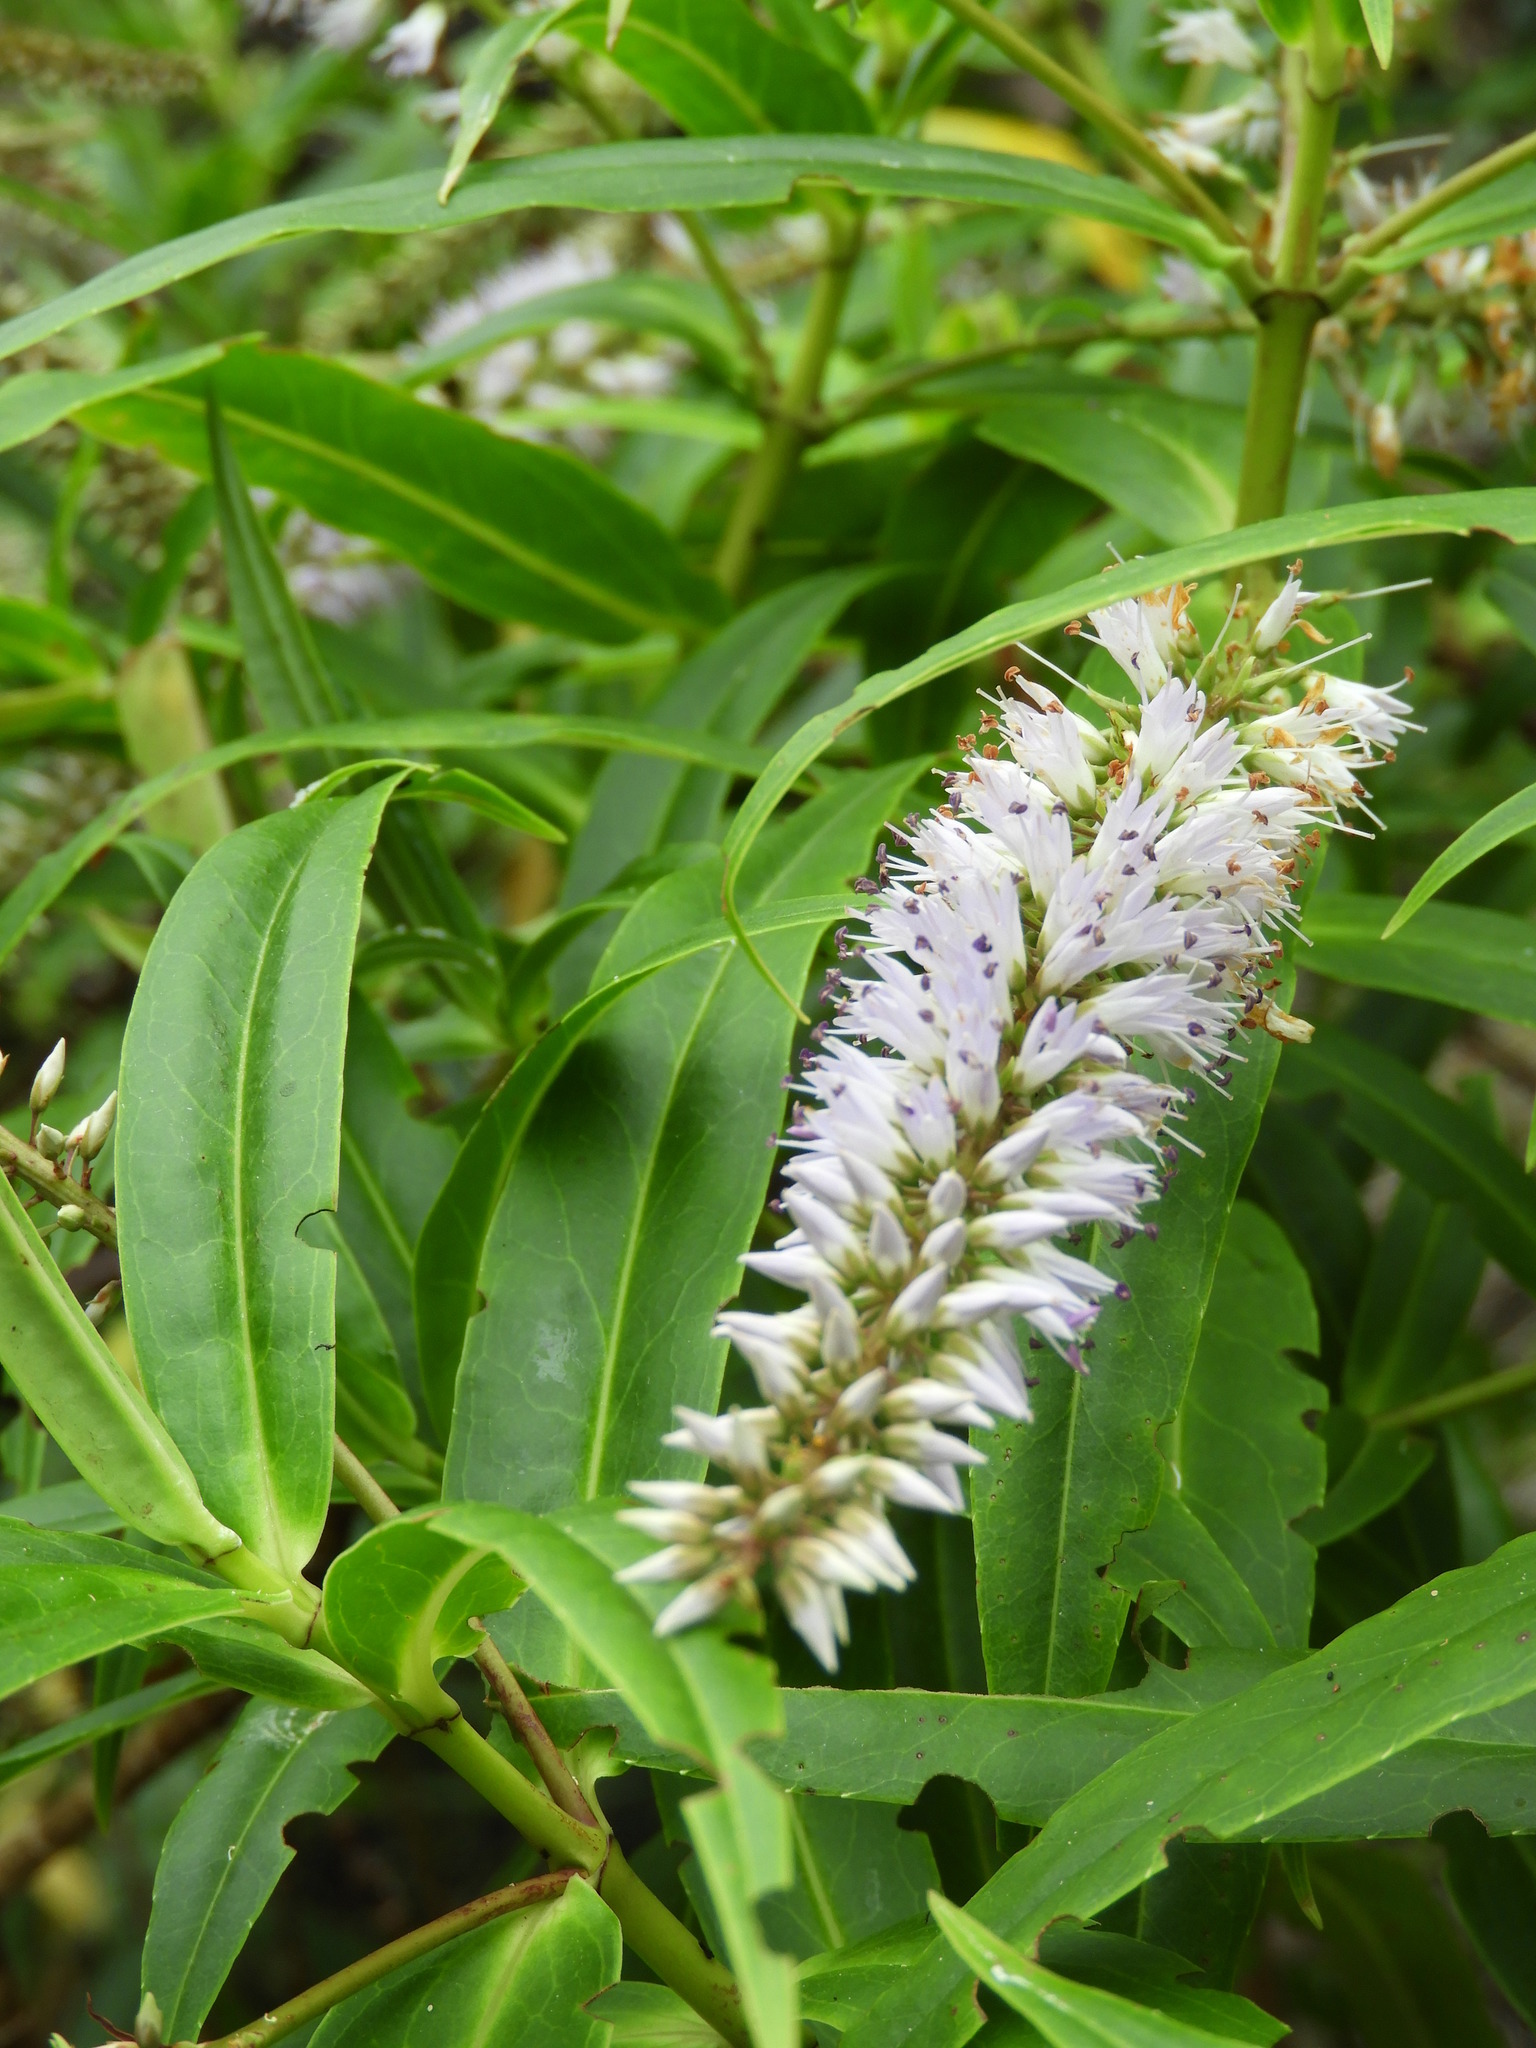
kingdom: Plantae
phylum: Tracheophyta
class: Magnoliopsida
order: Lamiales
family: Plantaginaceae
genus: Veronica
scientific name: Veronica salicifolia
